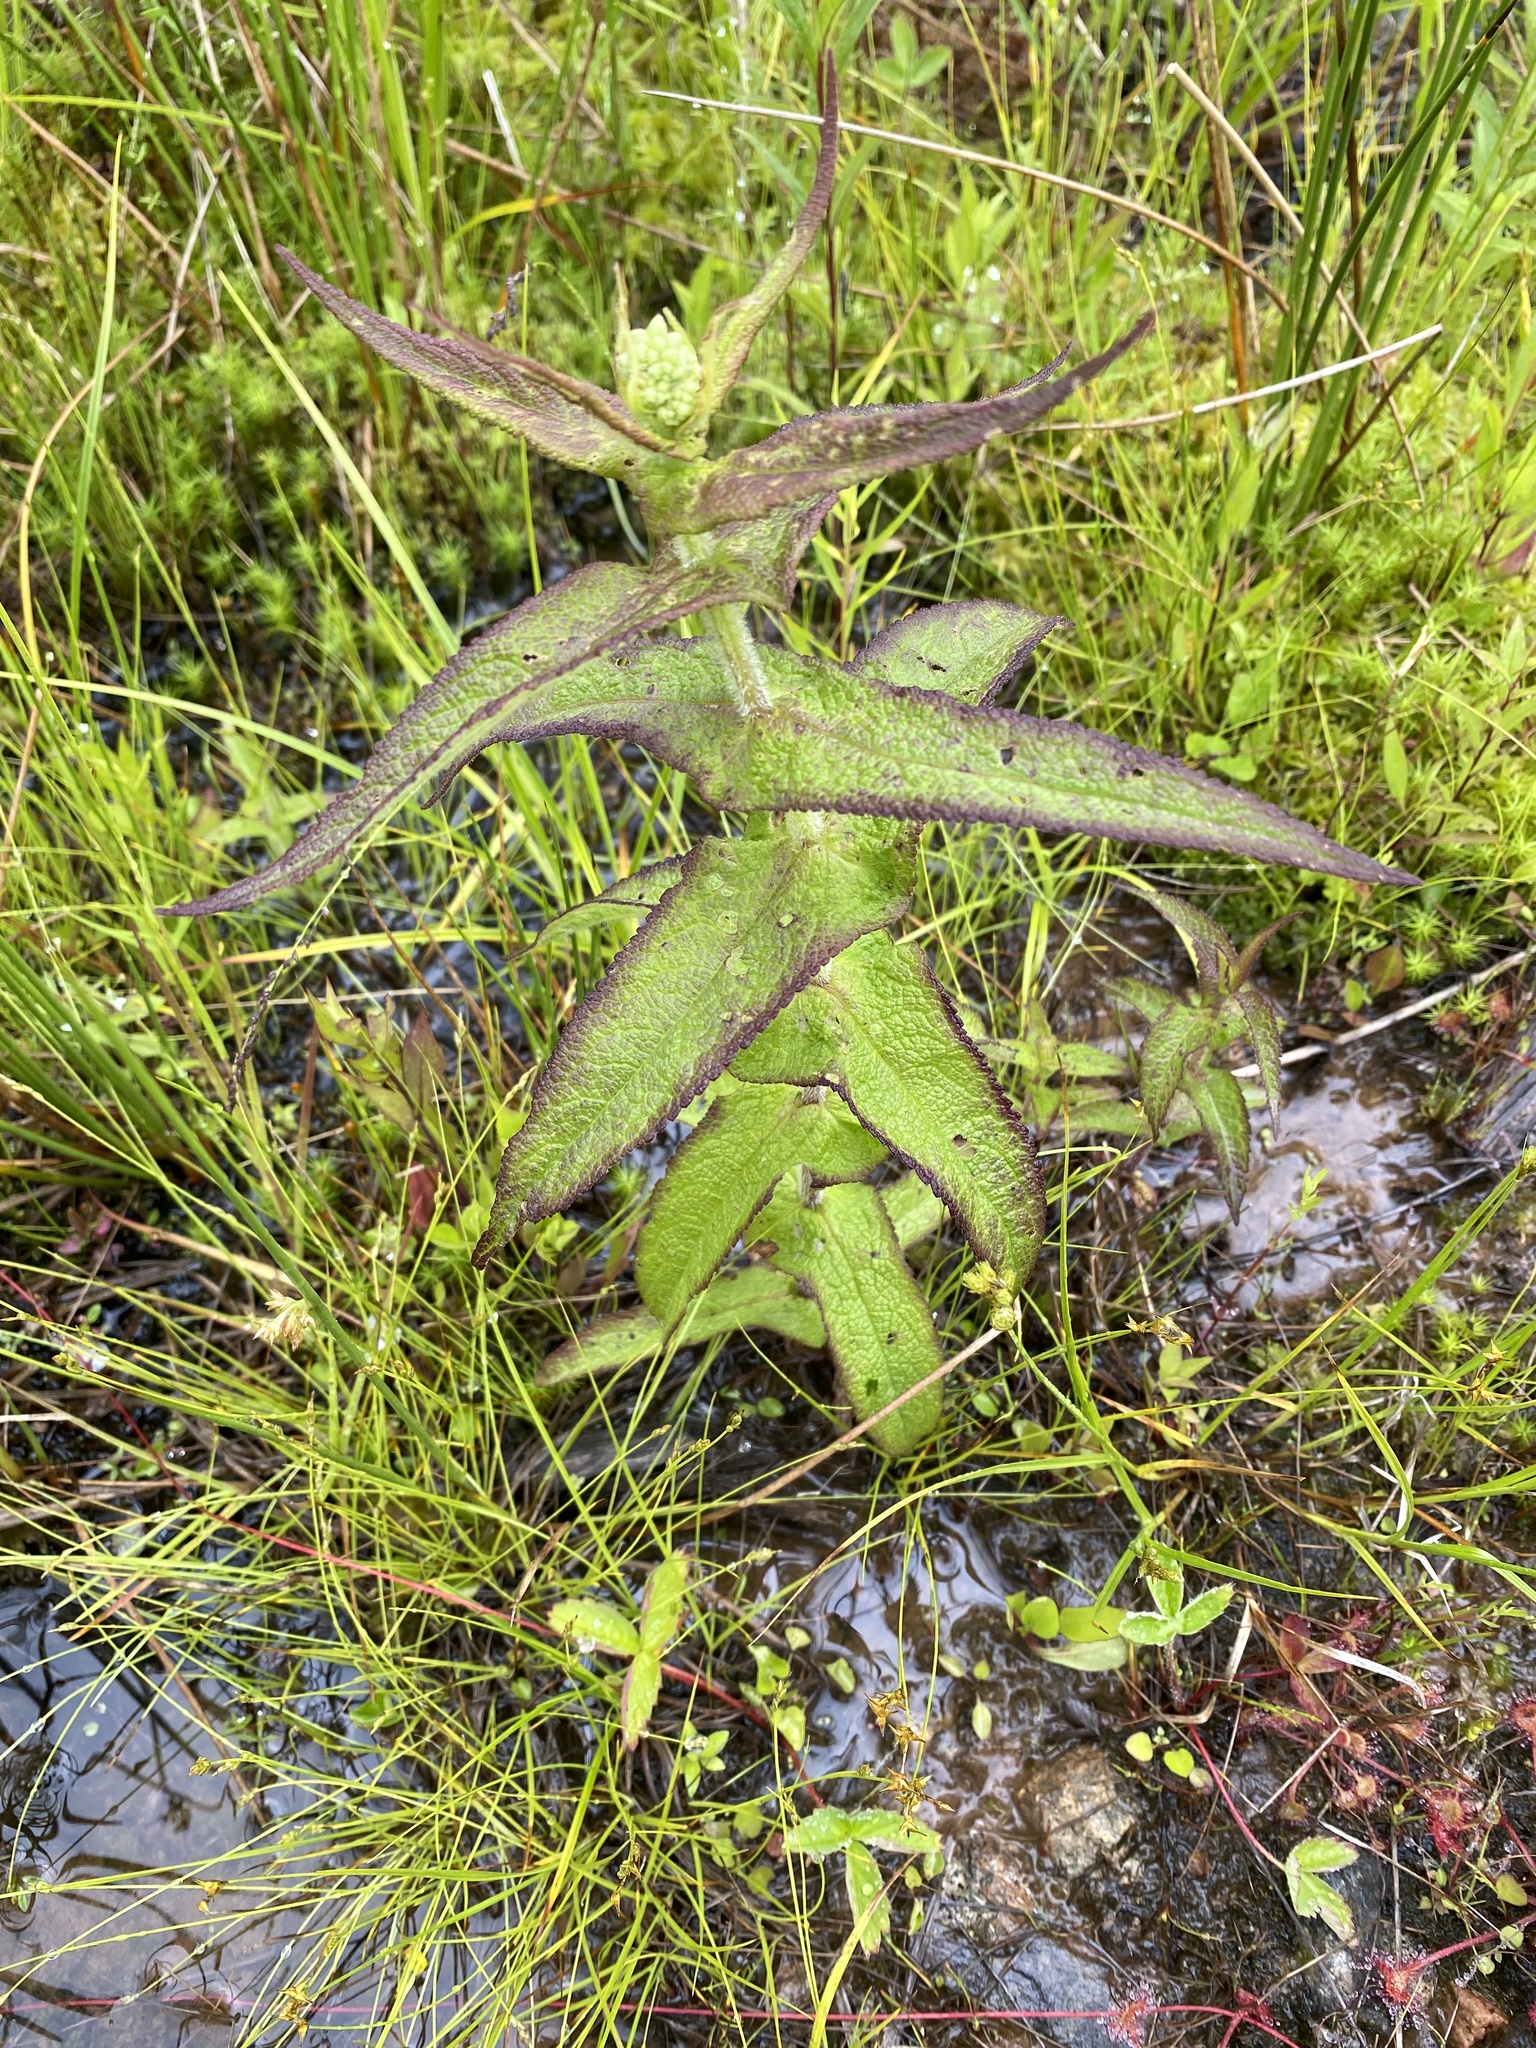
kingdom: Plantae
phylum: Tracheophyta
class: Magnoliopsida
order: Asterales
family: Asteraceae
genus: Eupatorium
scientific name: Eupatorium perfoliatum
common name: Boneset
